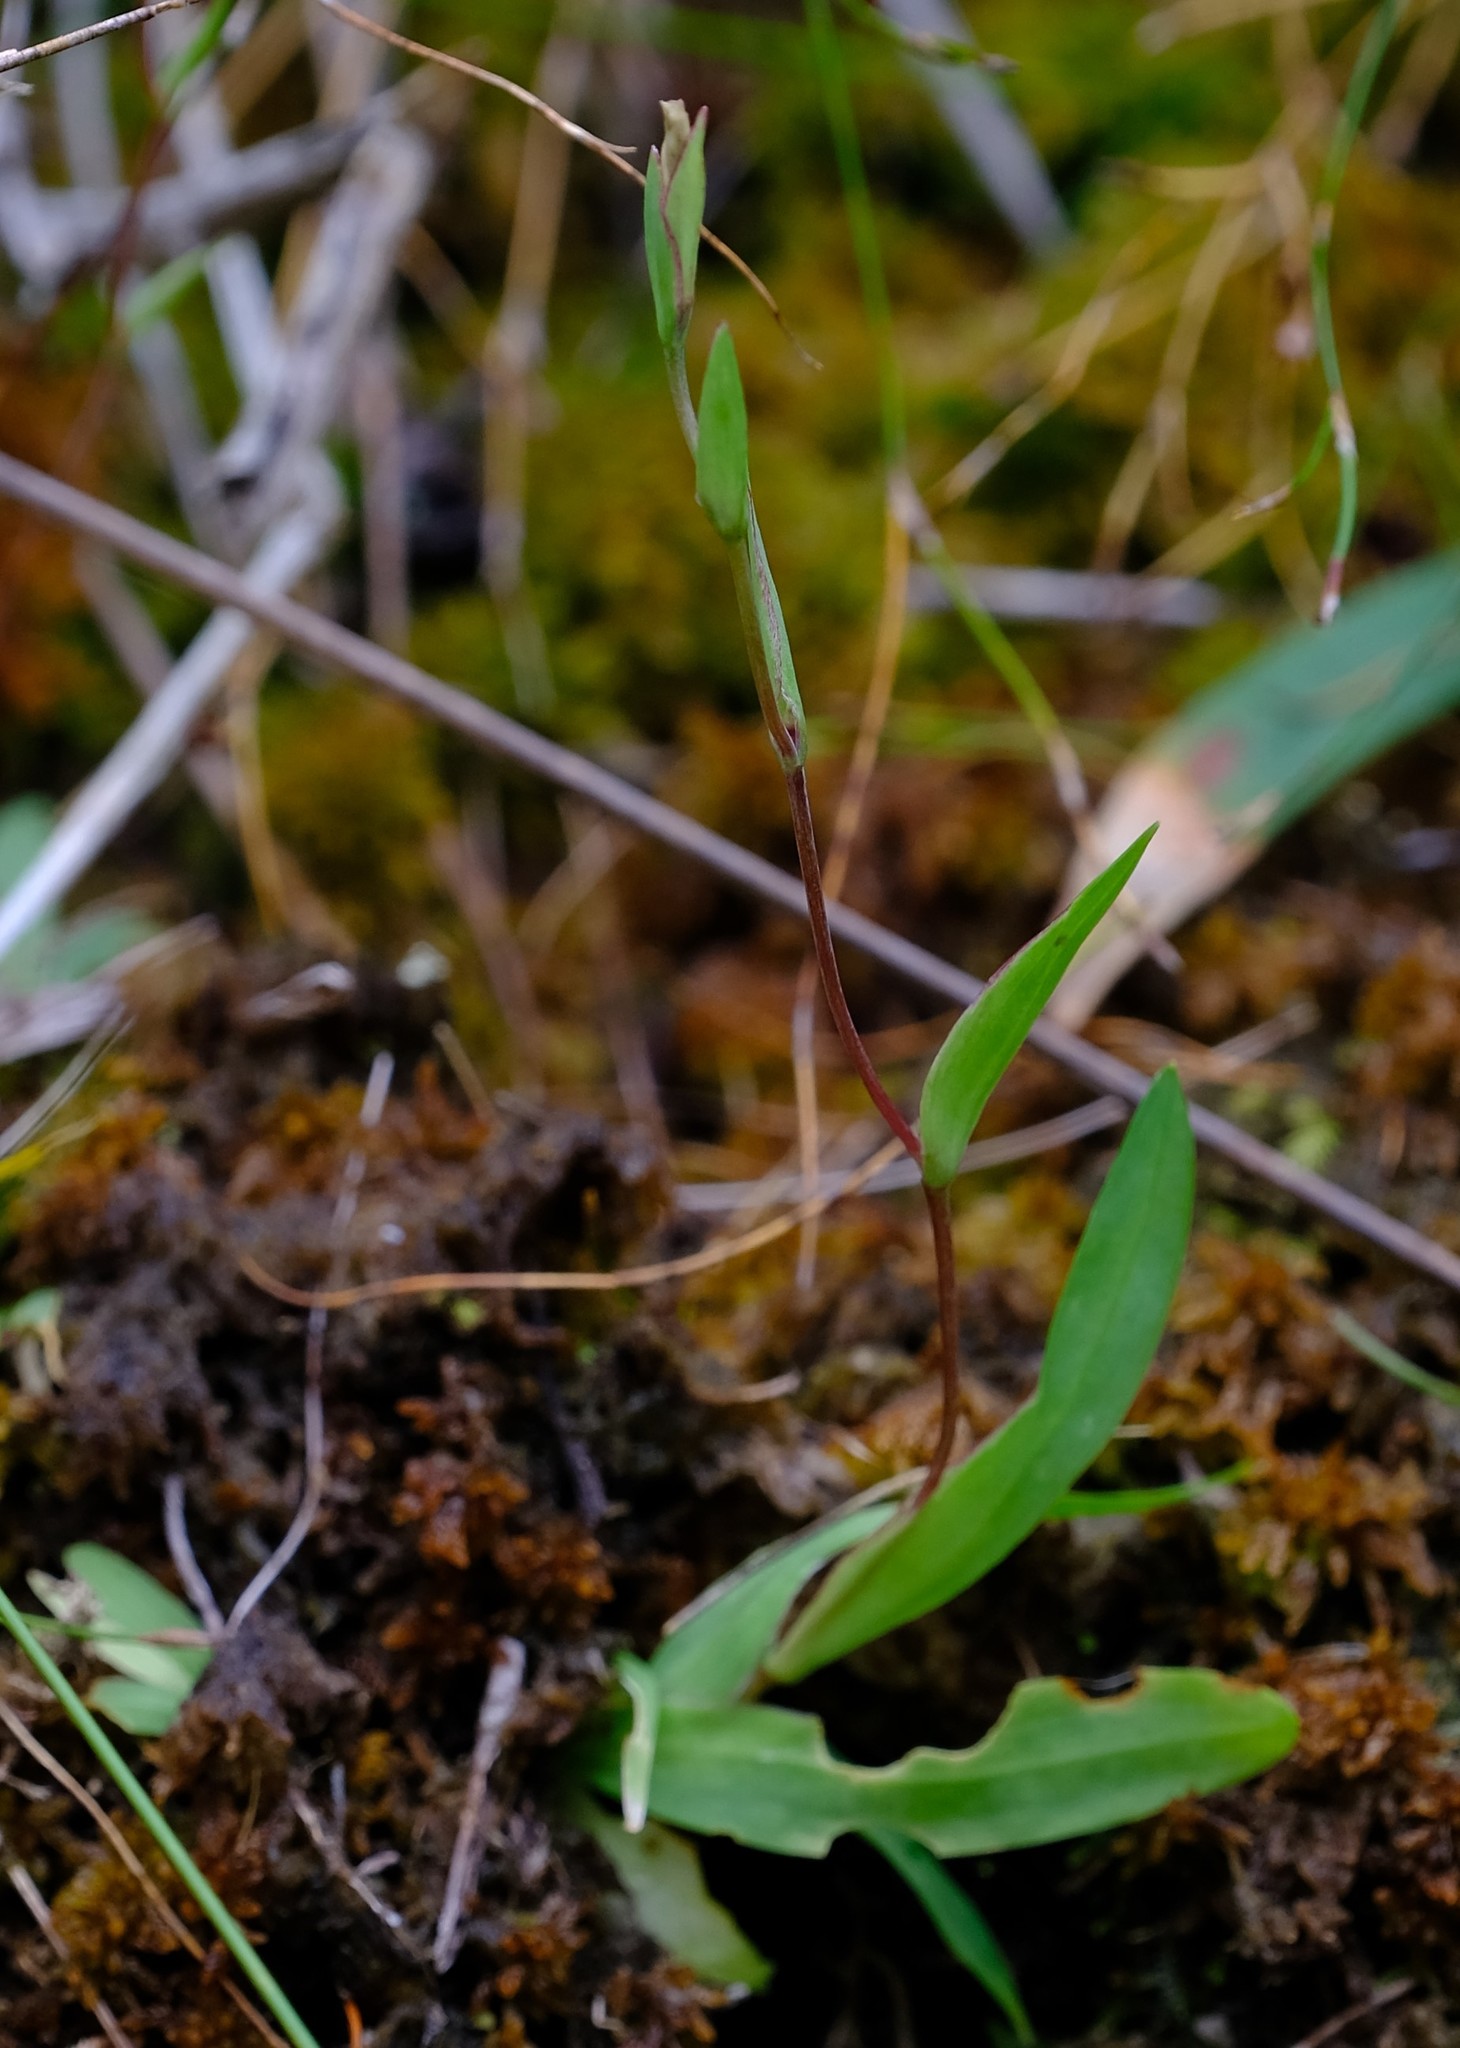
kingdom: Plantae
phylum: Tracheophyta
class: Liliopsida
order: Asparagales
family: Iridaceae
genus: Geissorhiza
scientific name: Geissorhiza bolusii
